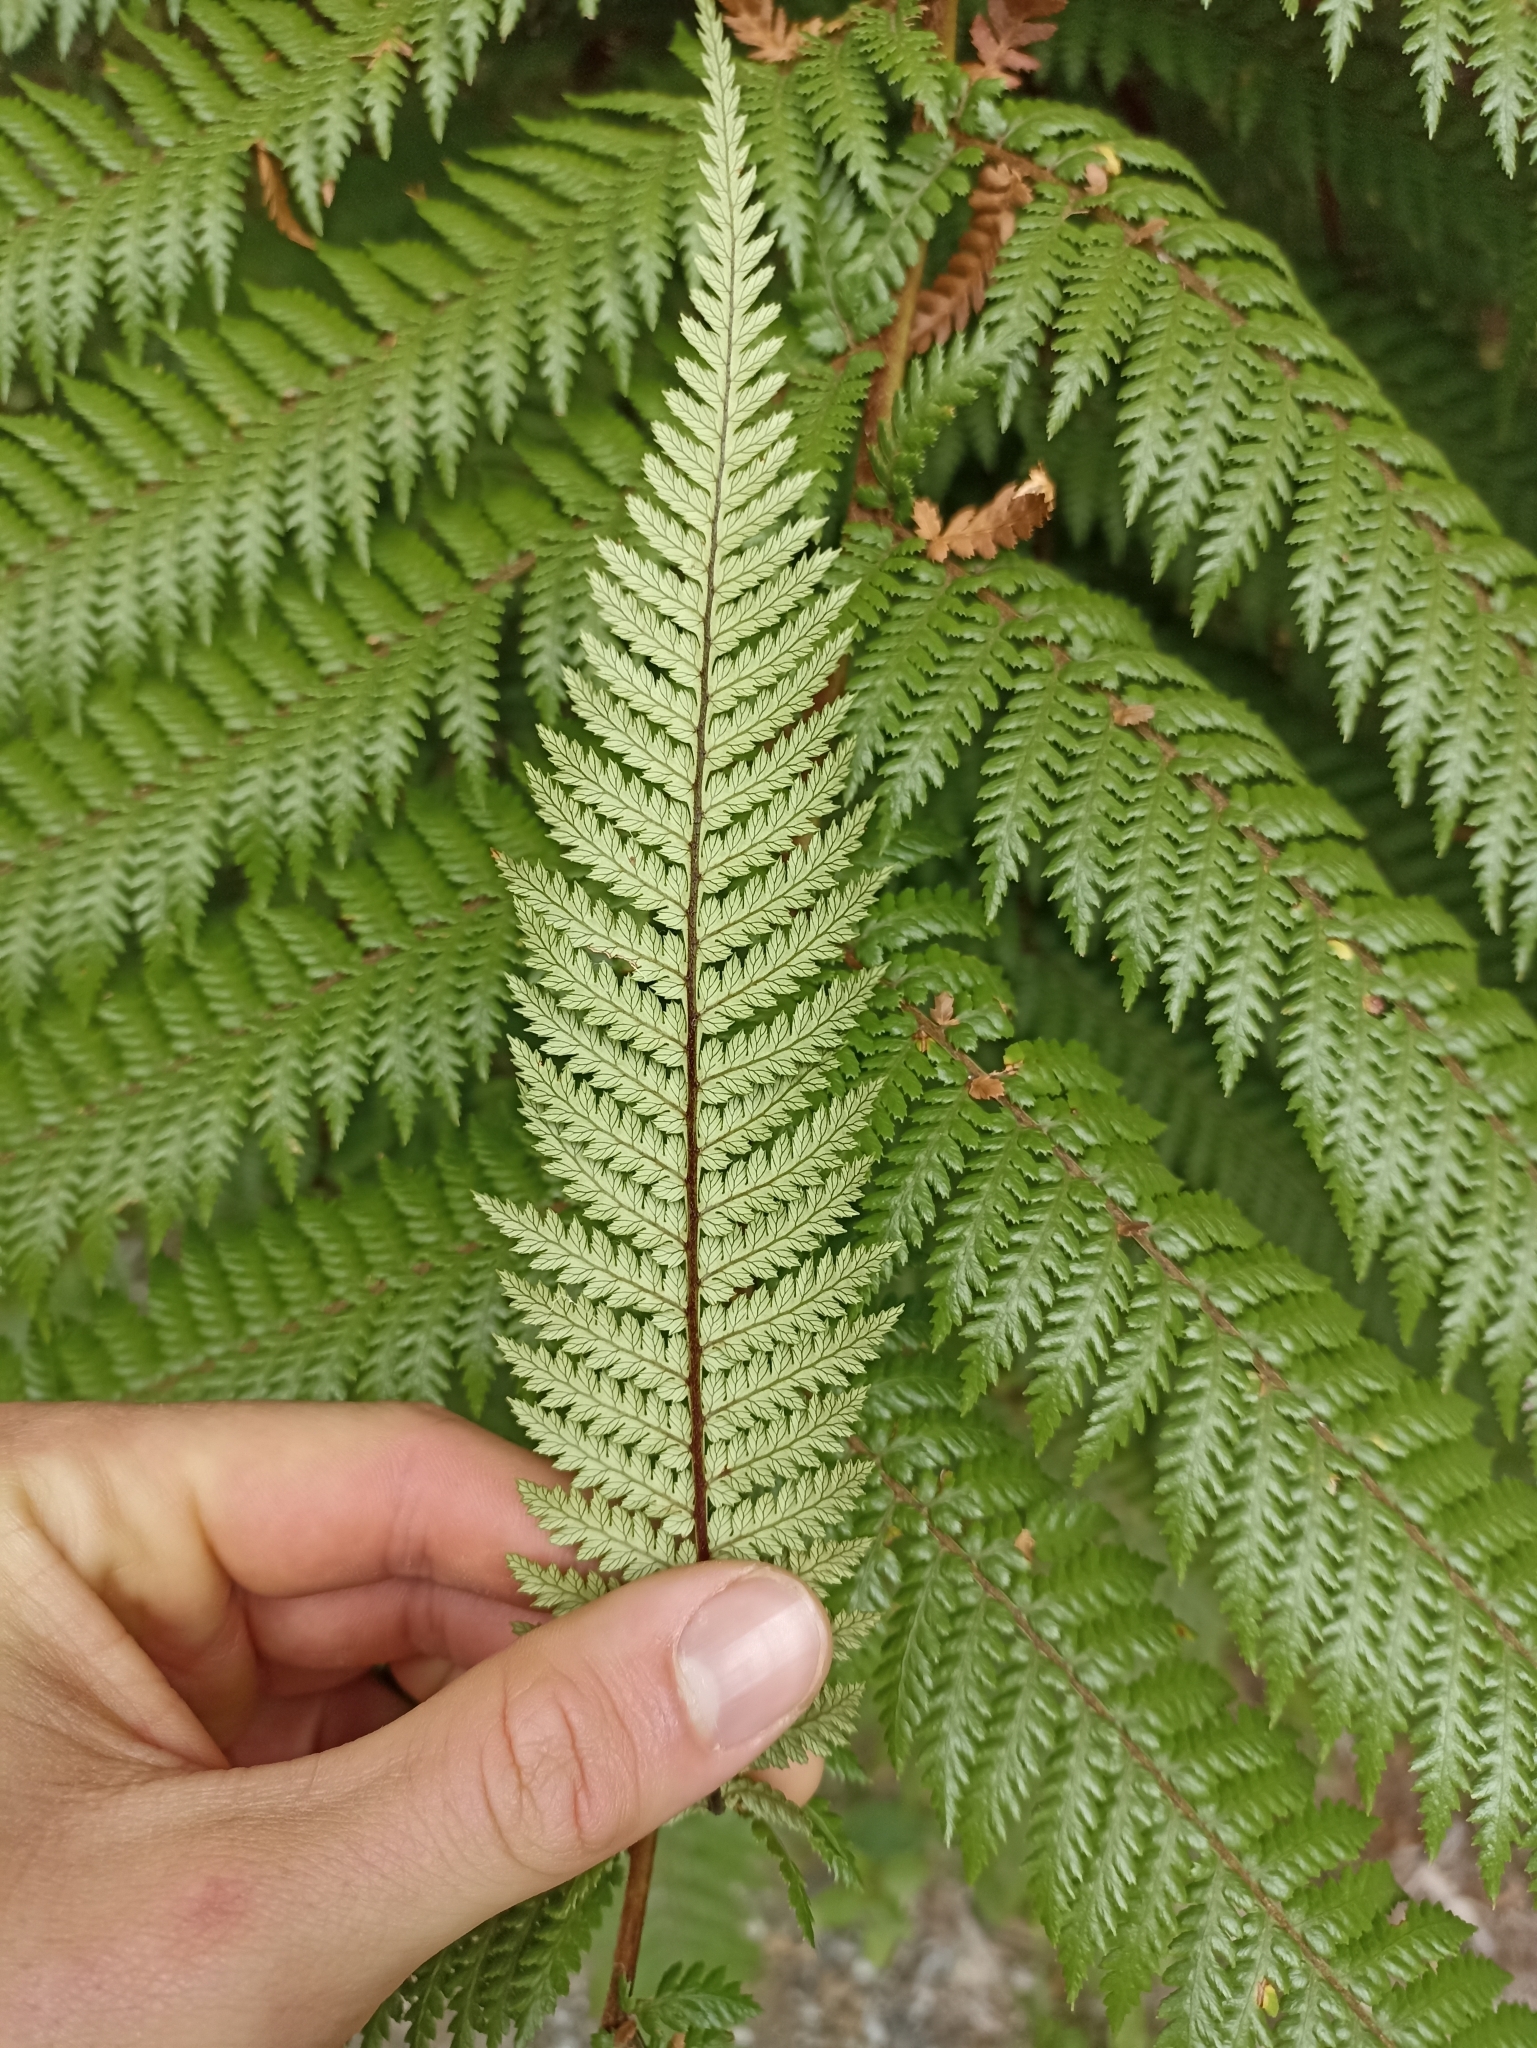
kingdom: Plantae
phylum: Tracheophyta
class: Polypodiopsida
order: Cyatheales
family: Dicksoniaceae
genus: Dicksonia
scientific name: Dicksonia squarrosa
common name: Hard treefern
